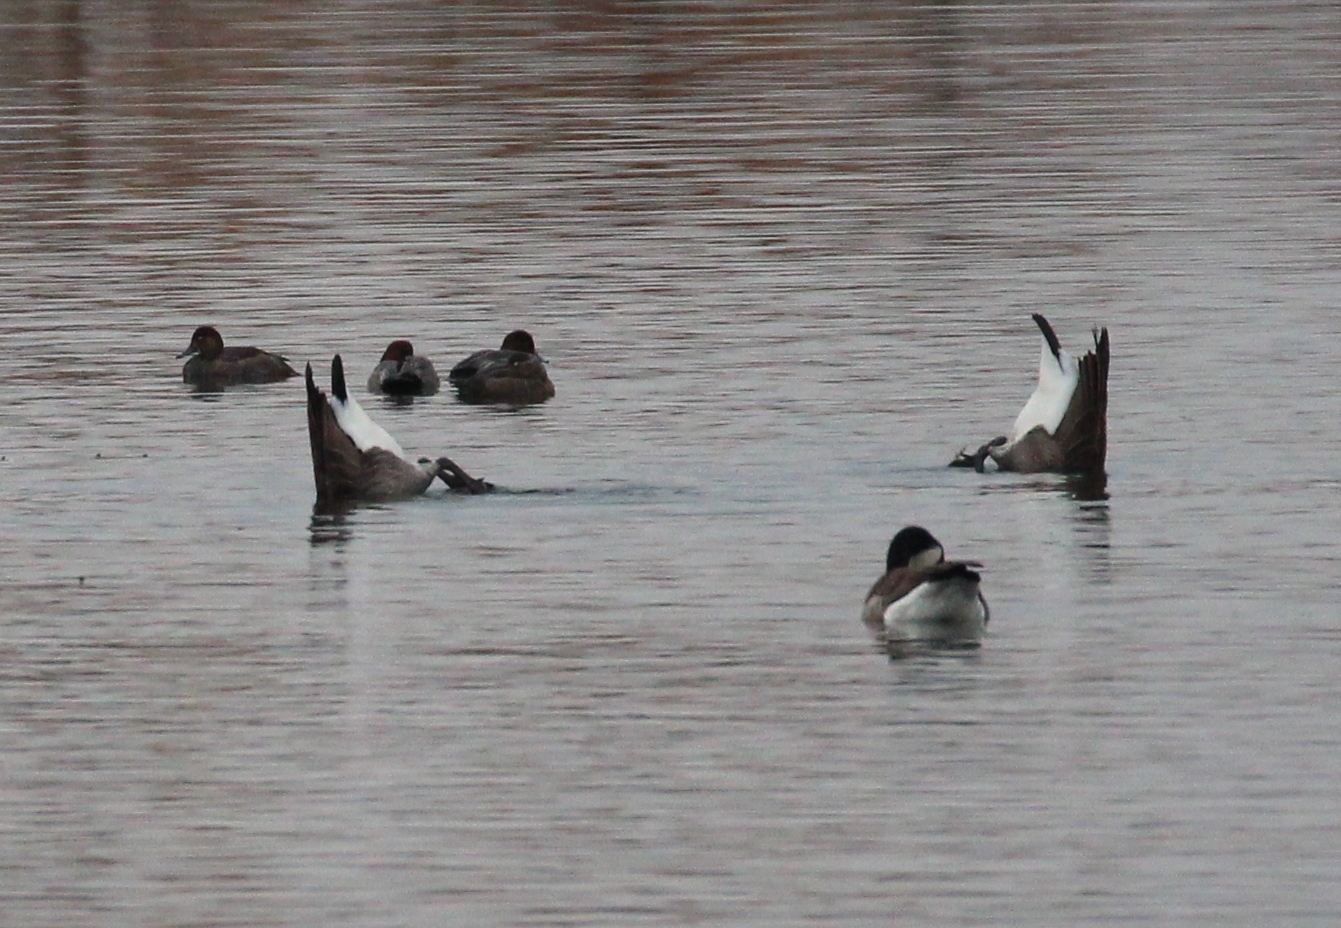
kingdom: Animalia
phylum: Chordata
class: Aves
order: Anseriformes
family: Anatidae
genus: Branta
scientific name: Branta canadensis
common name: Canada goose
